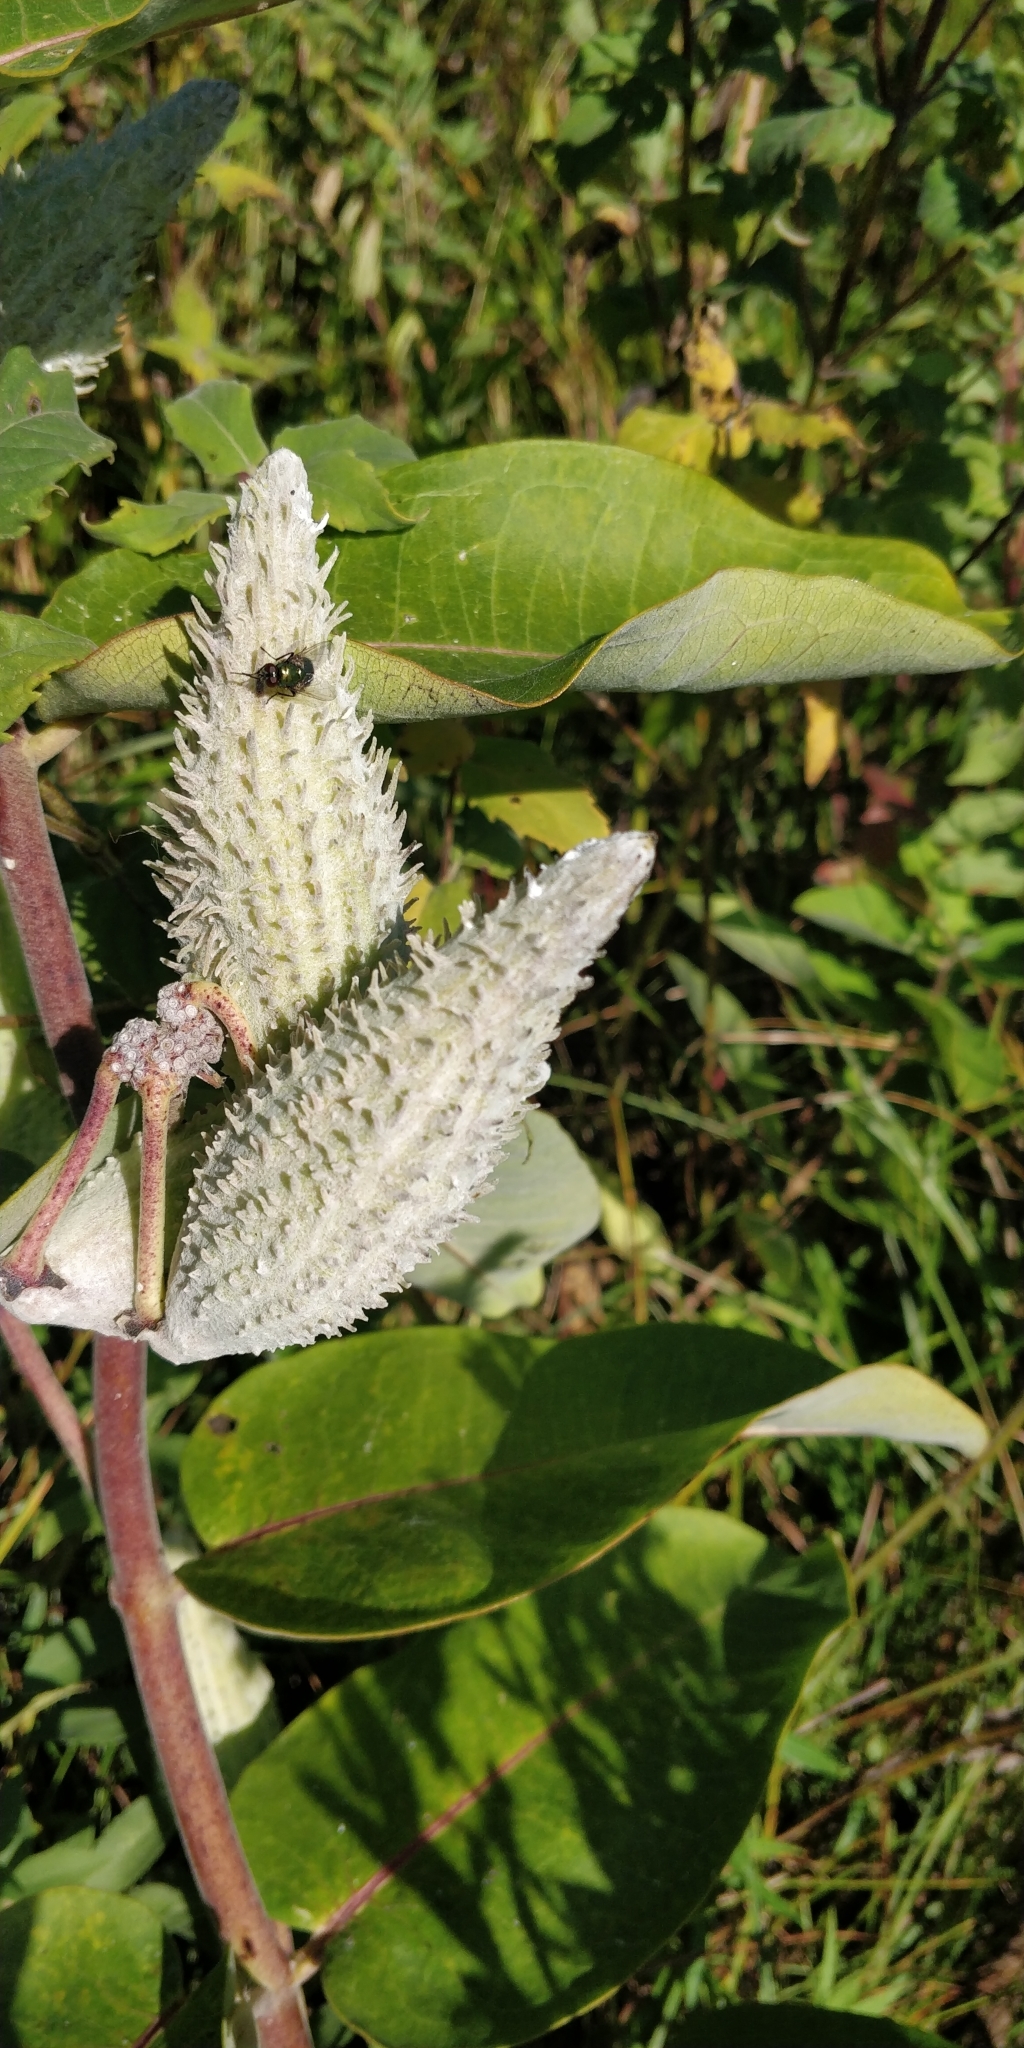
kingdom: Plantae
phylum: Tracheophyta
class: Magnoliopsida
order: Gentianales
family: Apocynaceae
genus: Asclepias
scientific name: Asclepias syriaca
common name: Common milkweed
